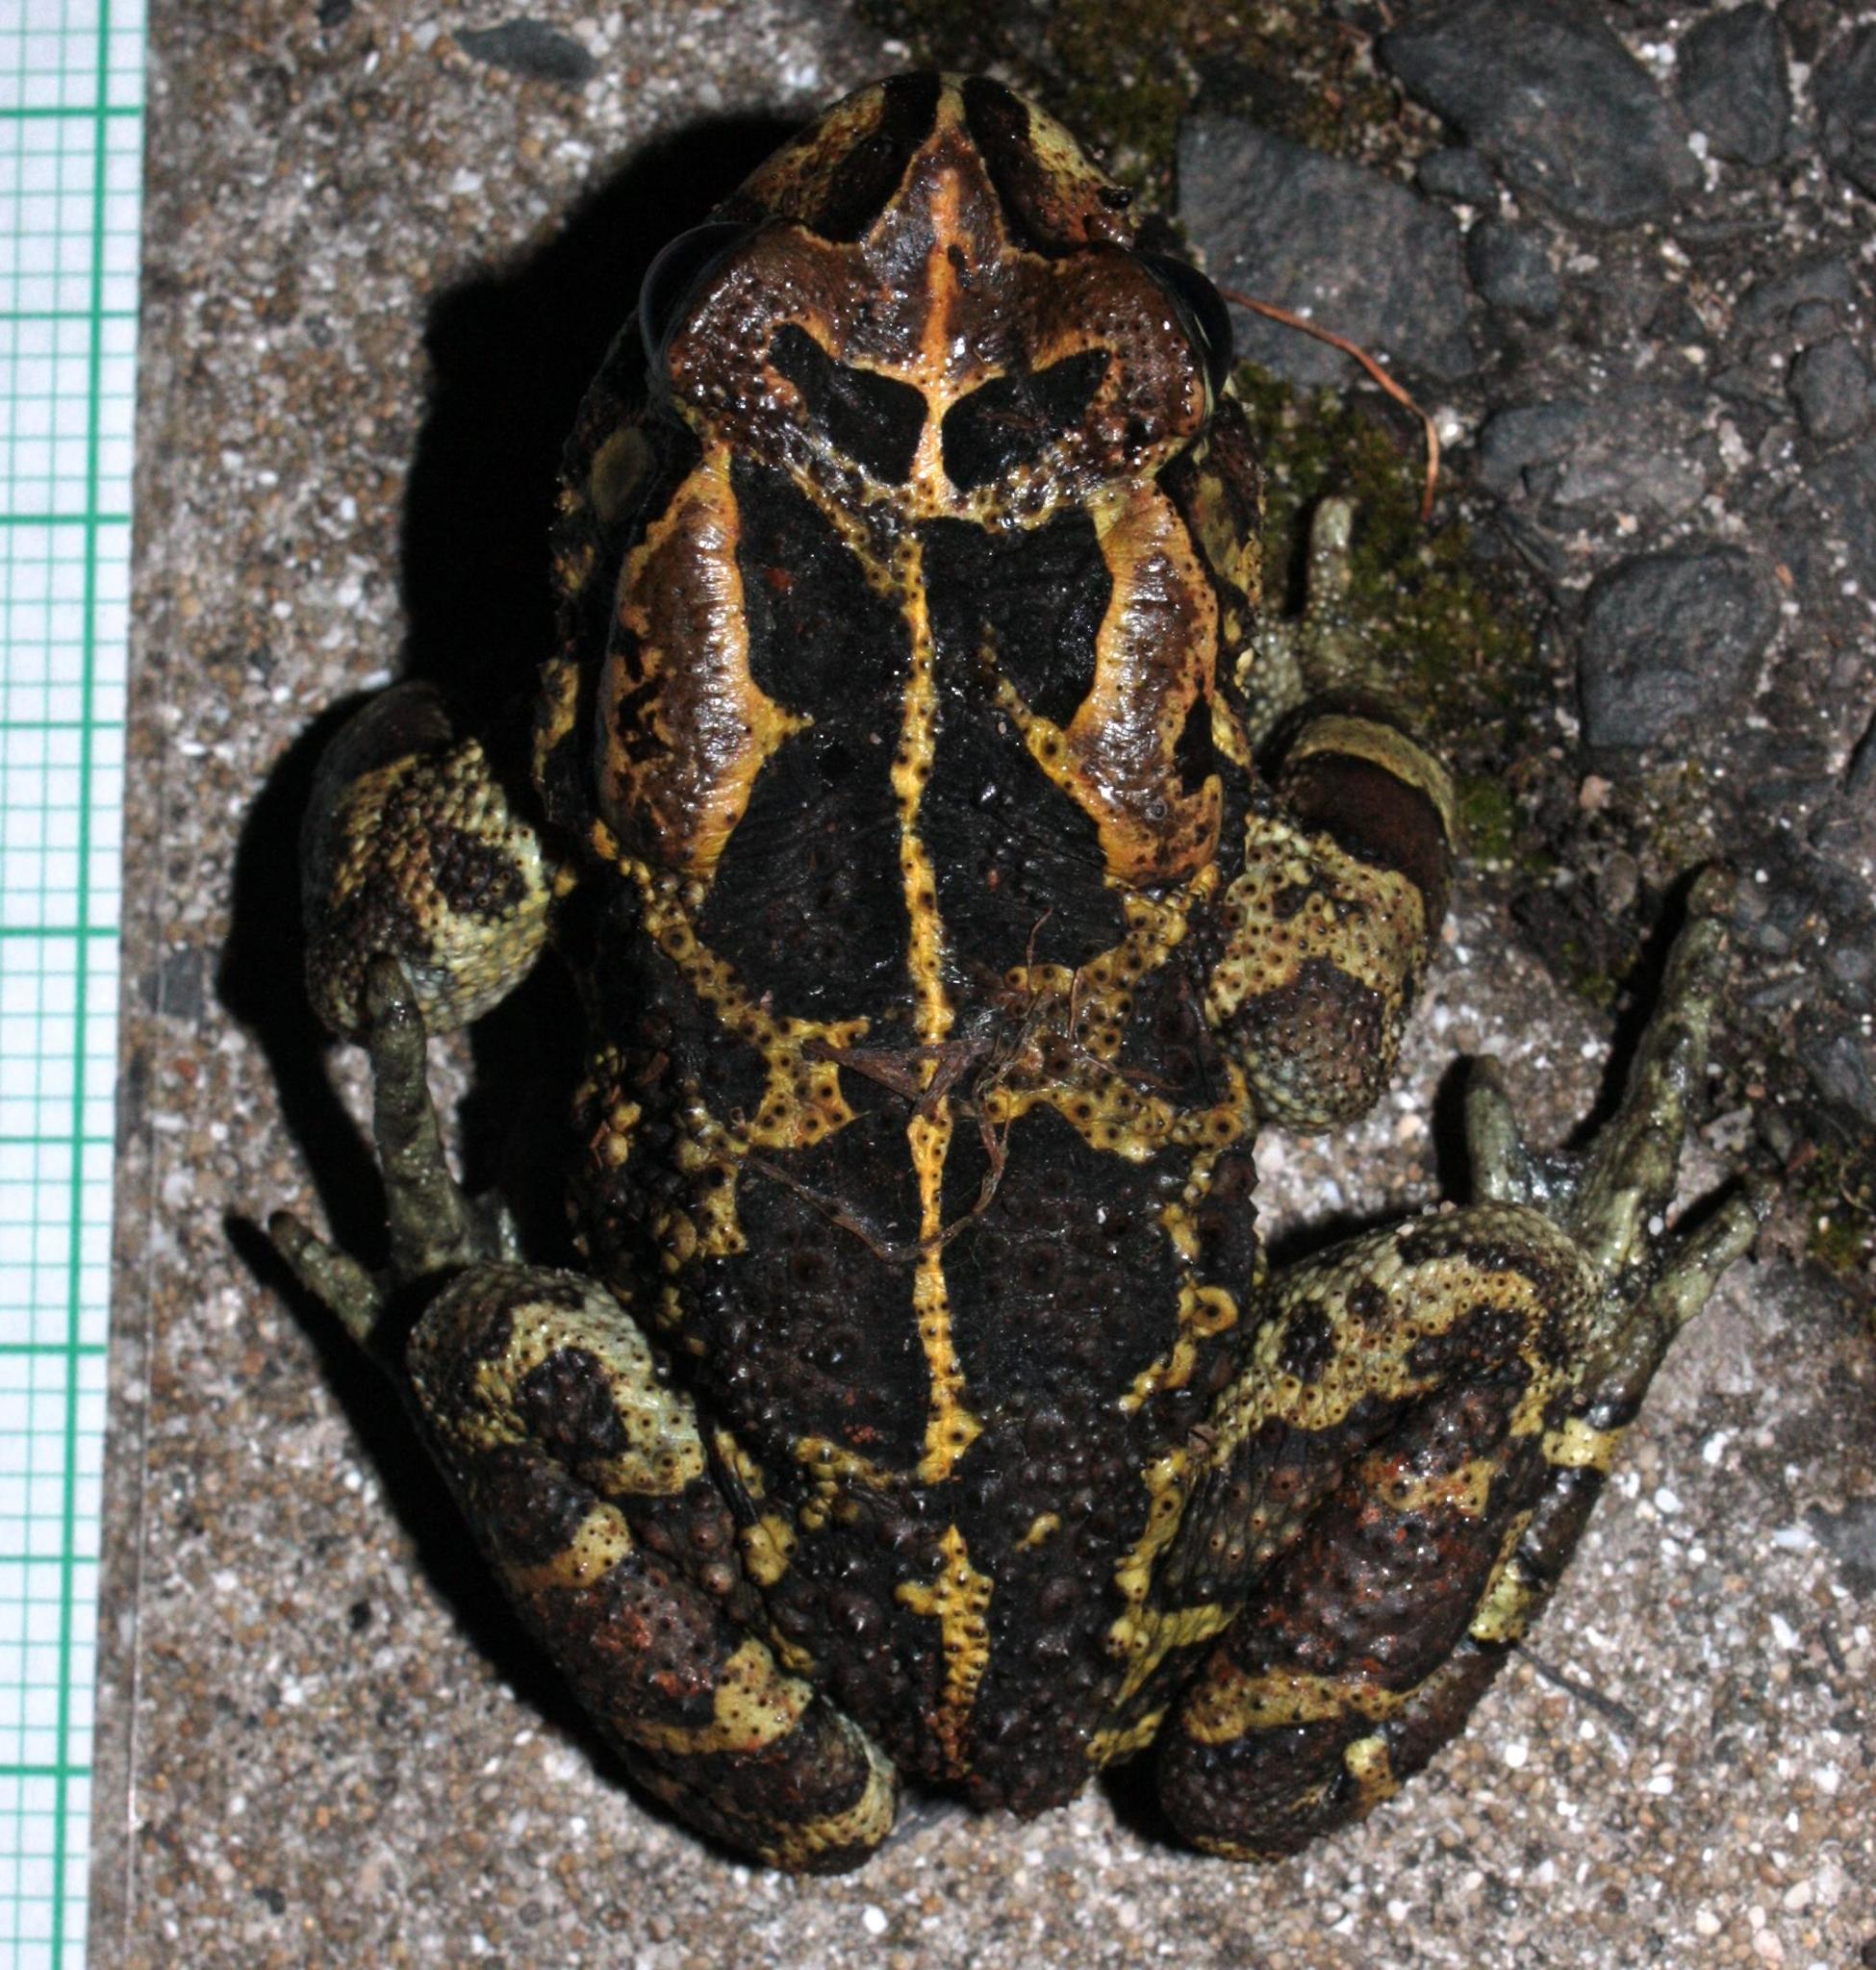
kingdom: Animalia
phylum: Chordata
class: Amphibia
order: Anura
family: Bufonidae
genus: Sclerophrys
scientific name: Sclerophrys pantherina
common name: Panther toad
